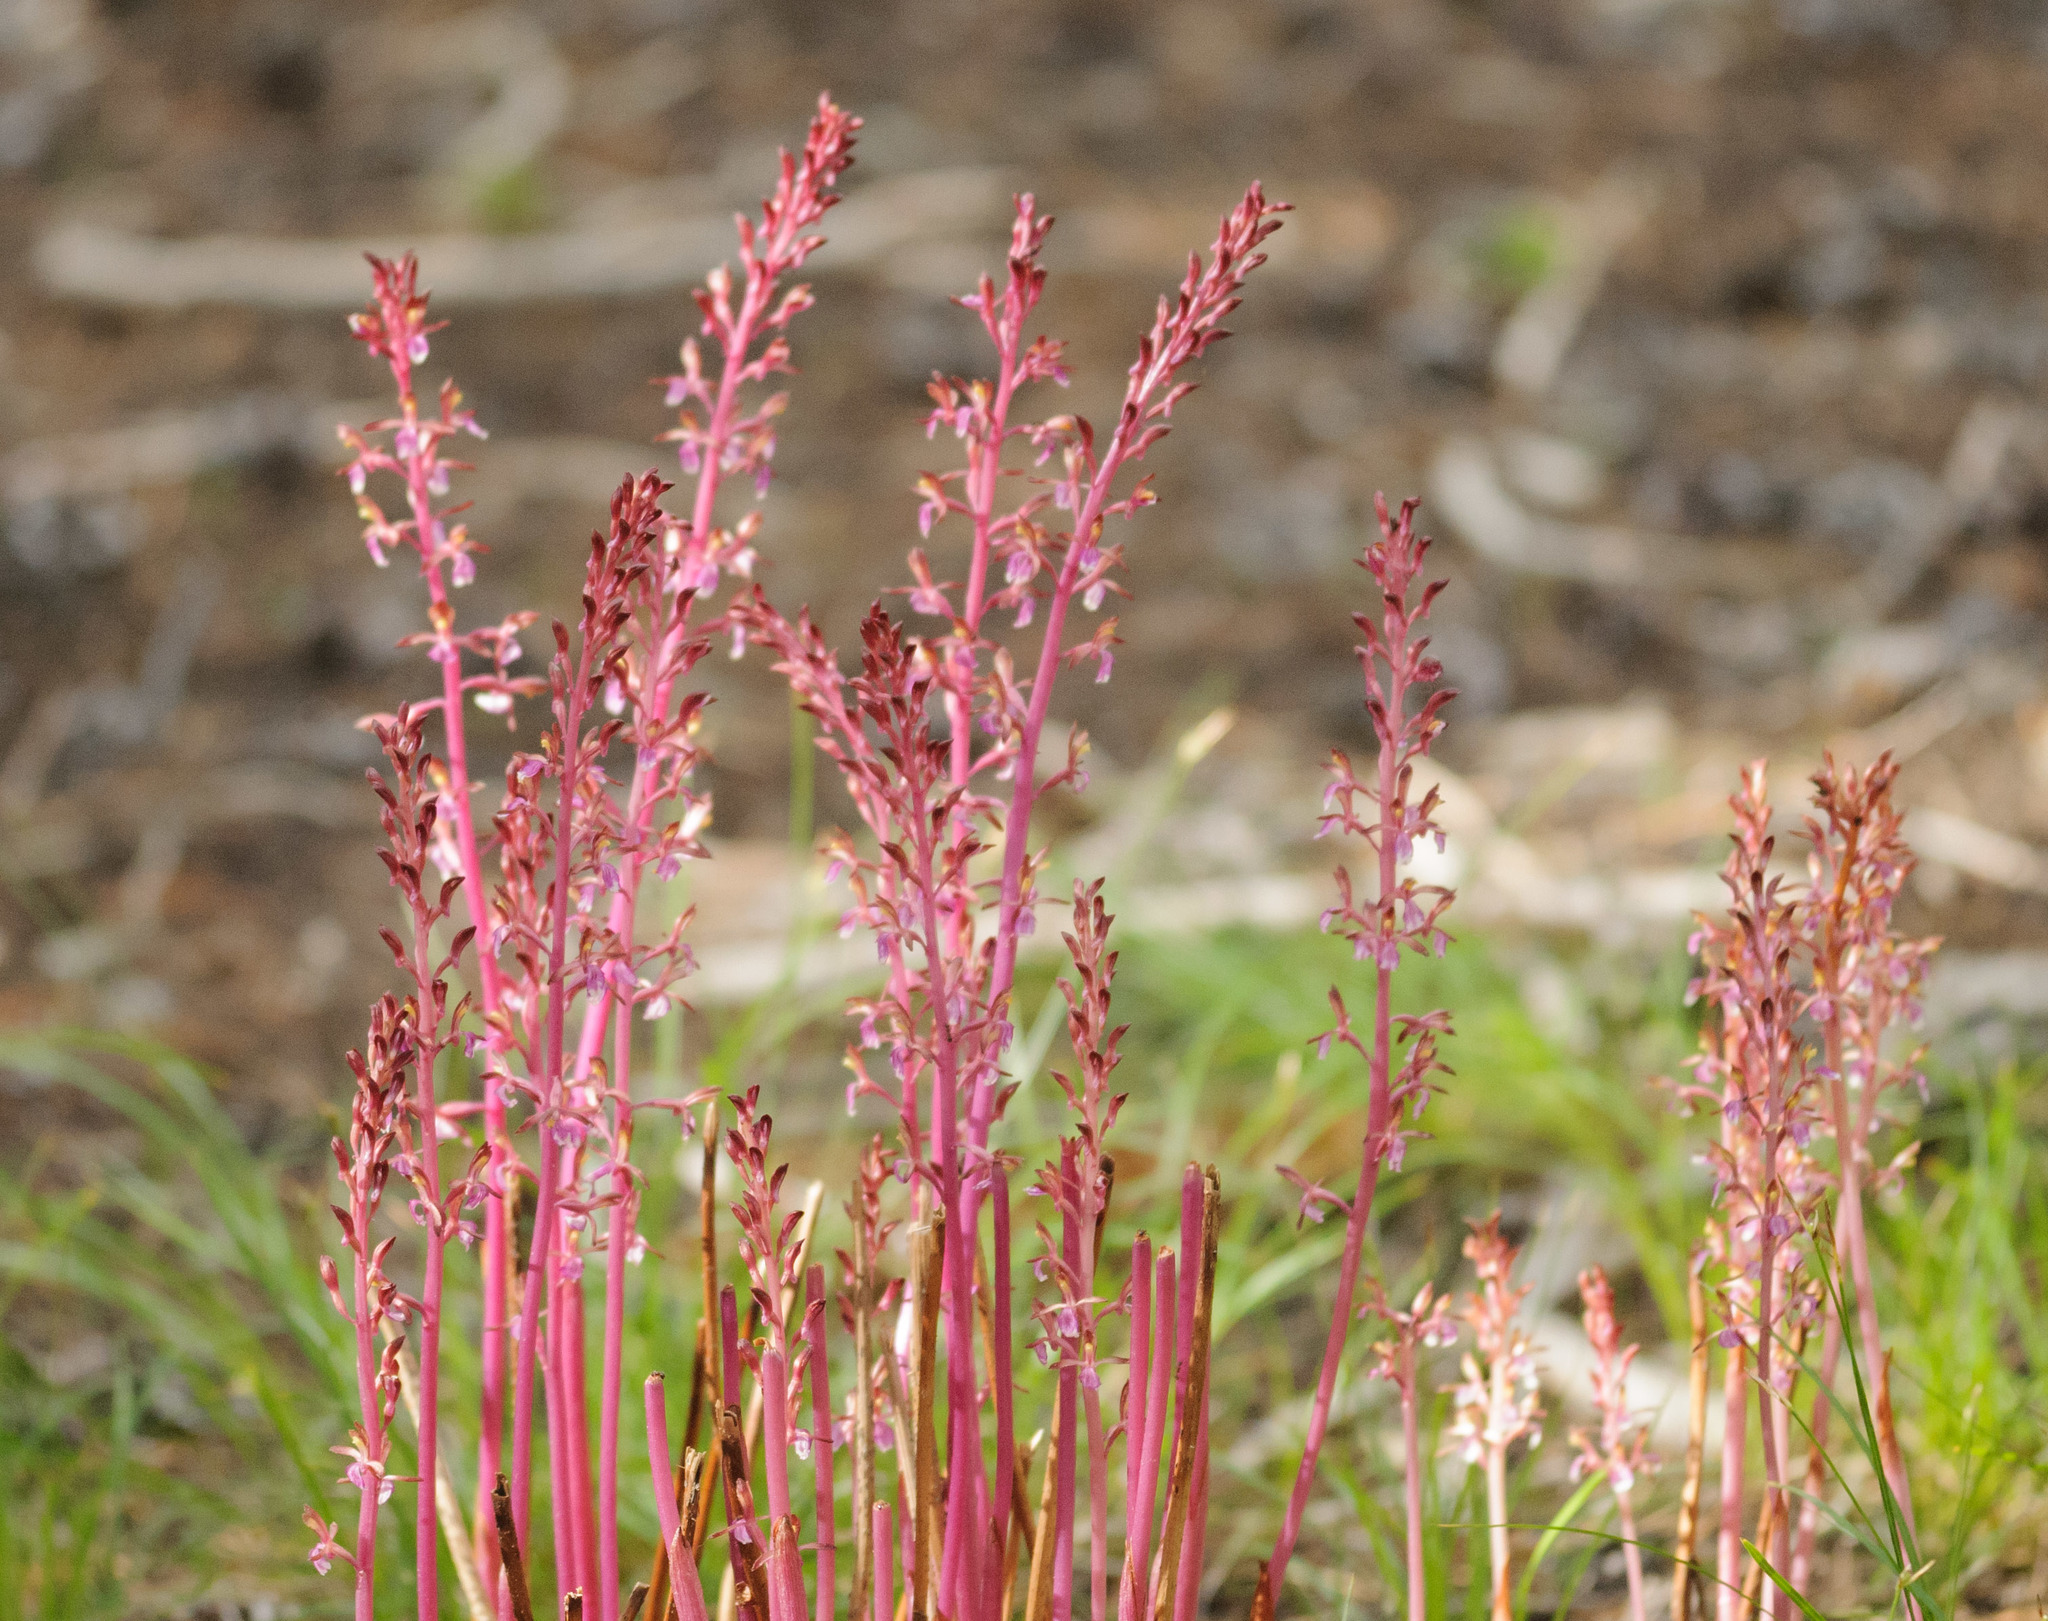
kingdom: Plantae
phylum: Tracheophyta
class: Liliopsida
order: Asparagales
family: Orchidaceae
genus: Corallorhiza
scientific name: Corallorhiza mertensiana
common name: Pacific coralroot
